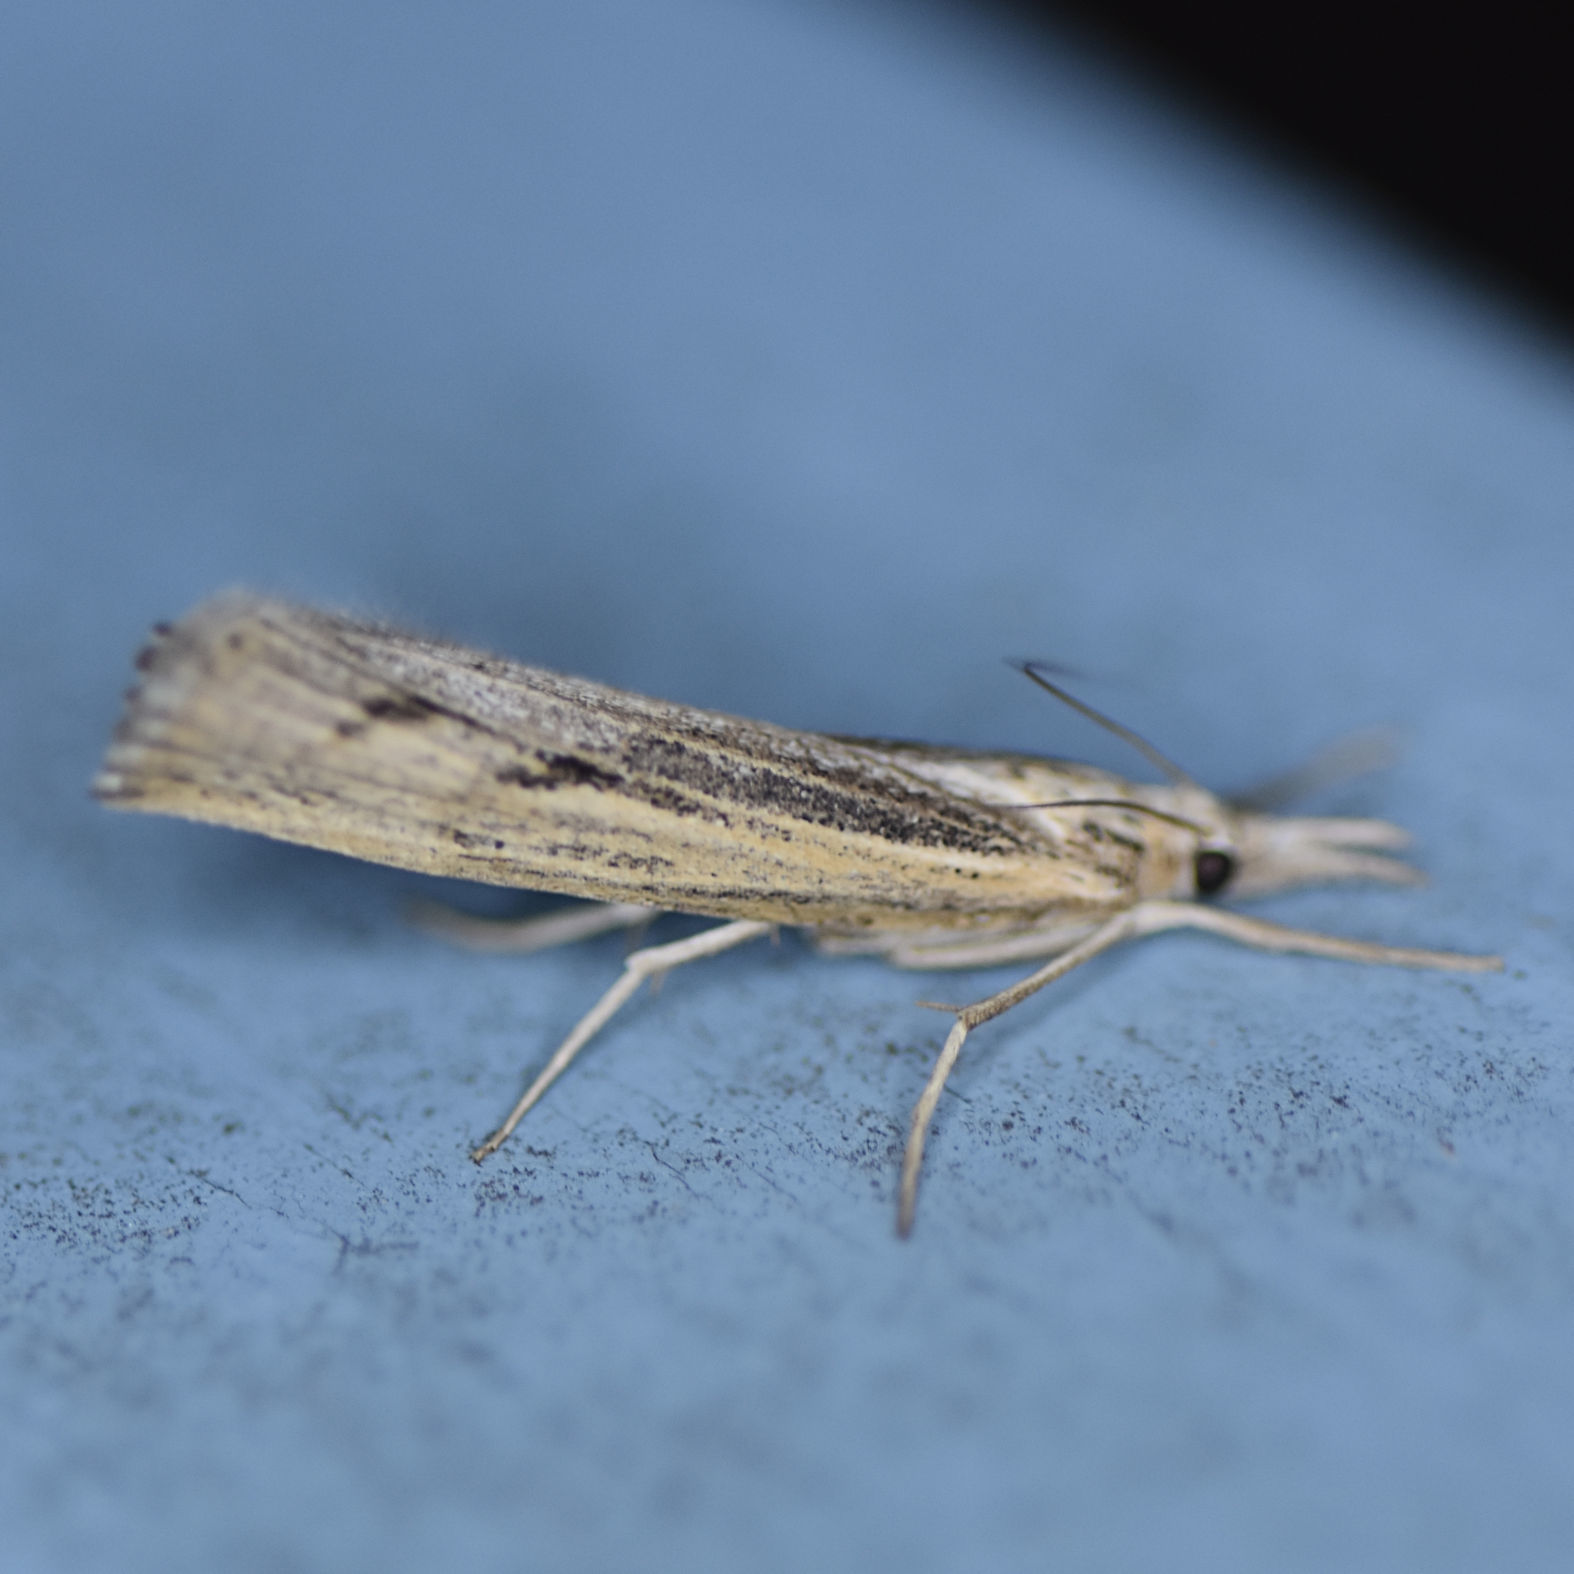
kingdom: Animalia
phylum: Arthropoda
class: Insecta
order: Lepidoptera
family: Crambidae
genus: Pediasia
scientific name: Pediasia trisecta
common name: Sod webworm moth
